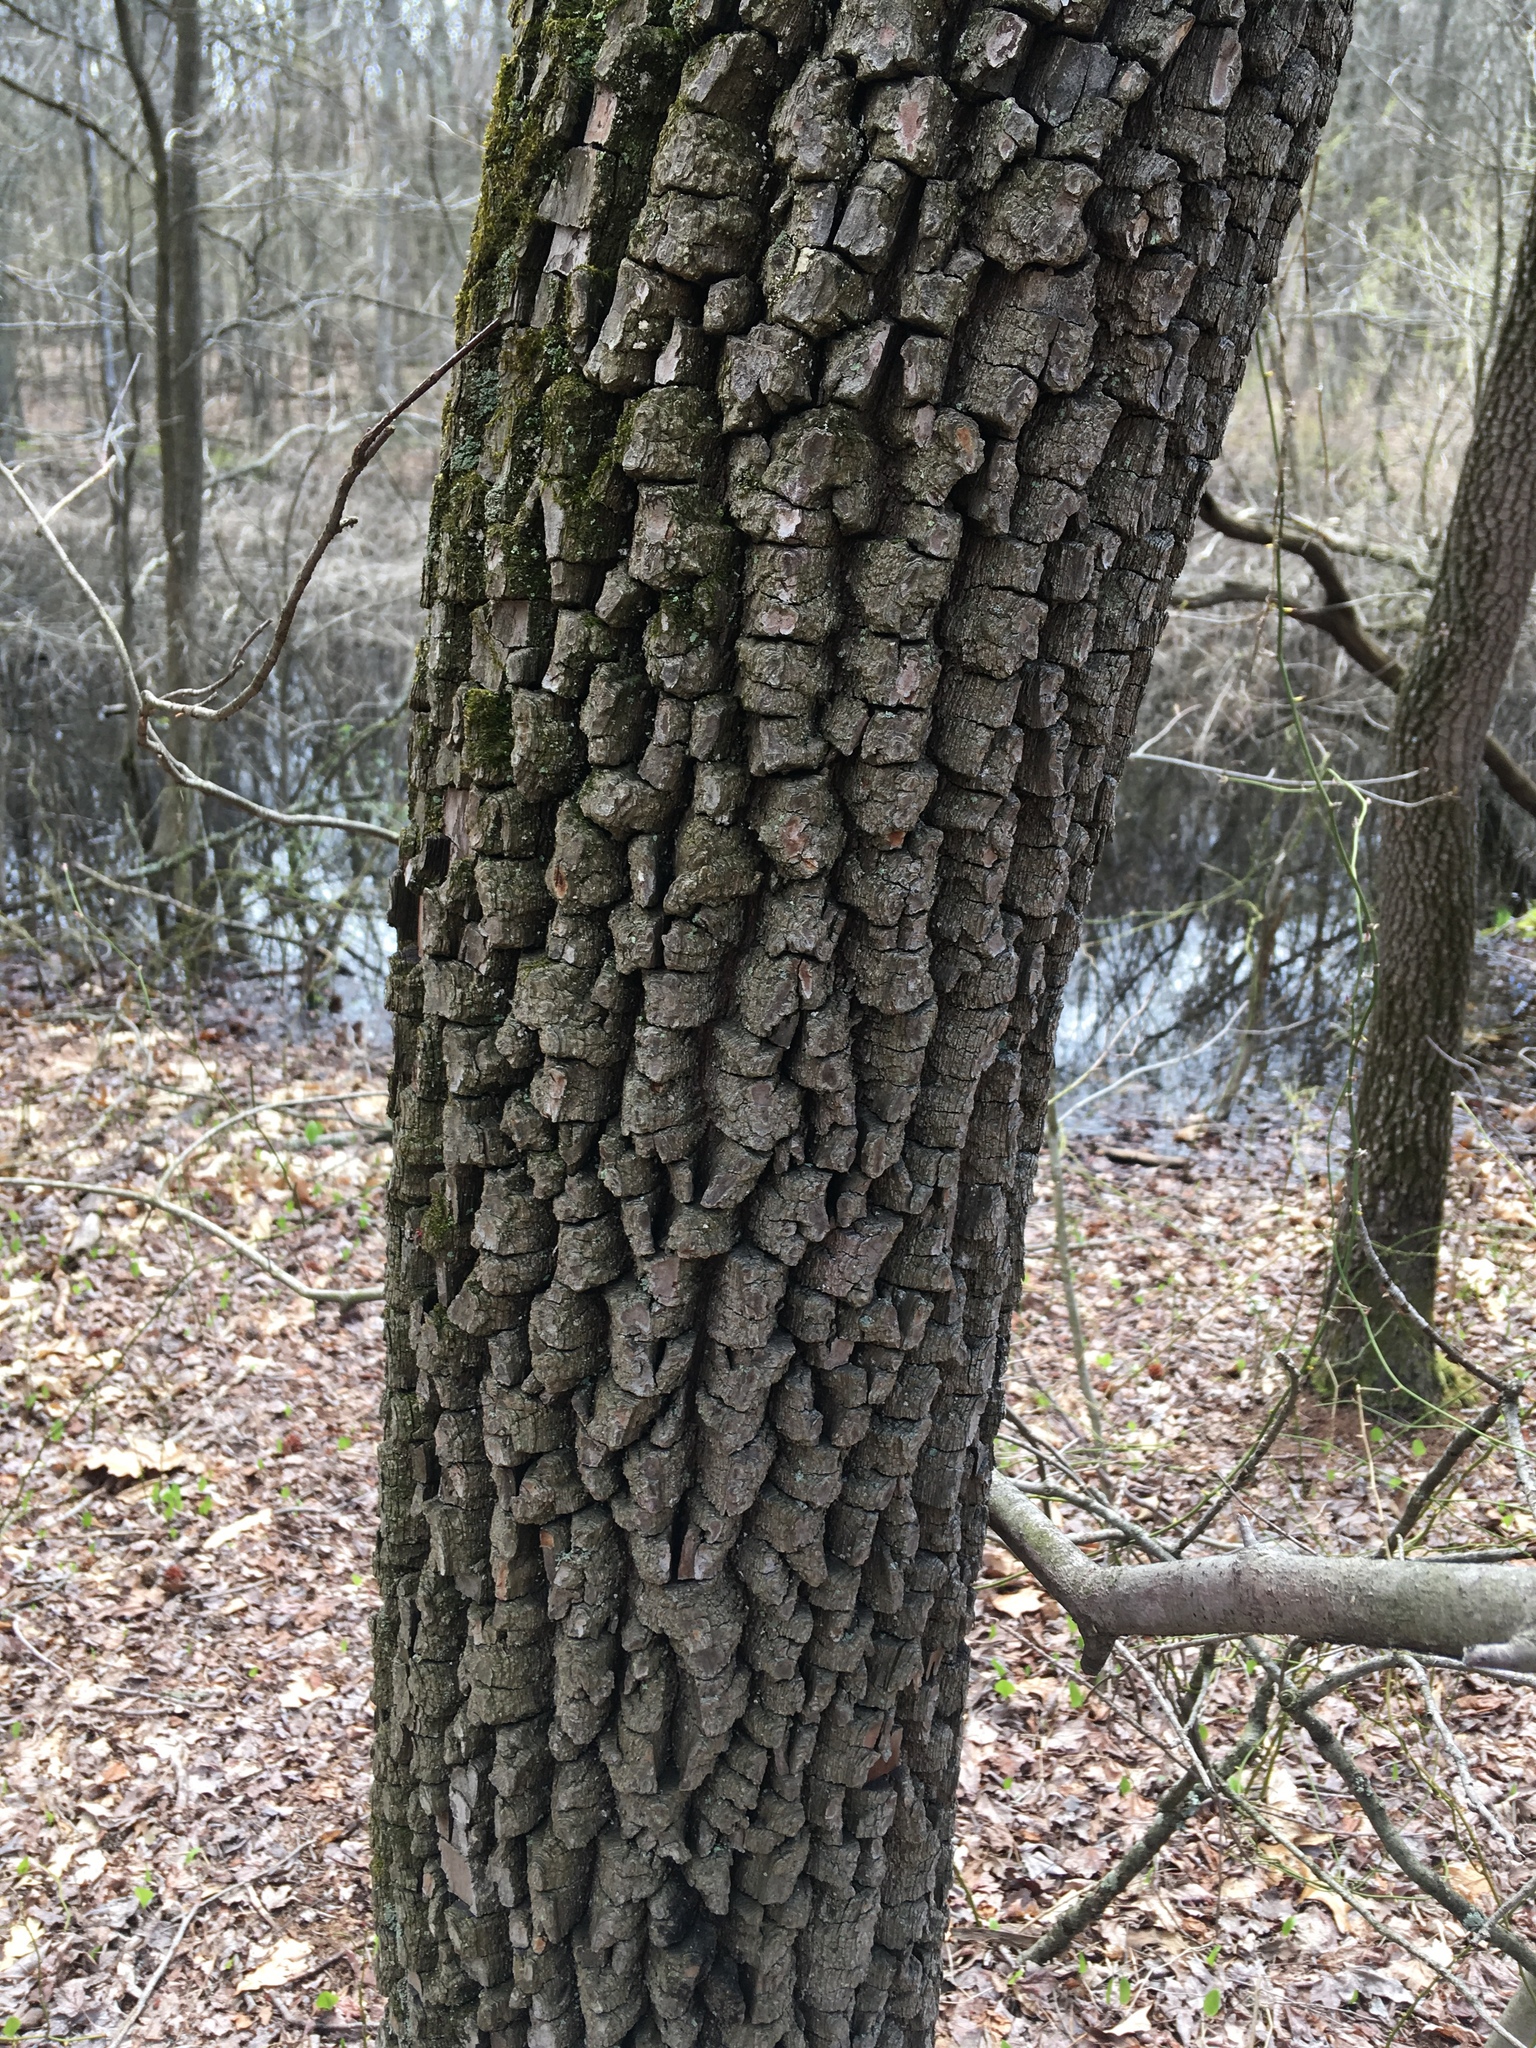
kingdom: Plantae
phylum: Tracheophyta
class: Magnoliopsida
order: Ericales
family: Ebenaceae
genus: Diospyros
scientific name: Diospyros virginiana
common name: Persimmon
